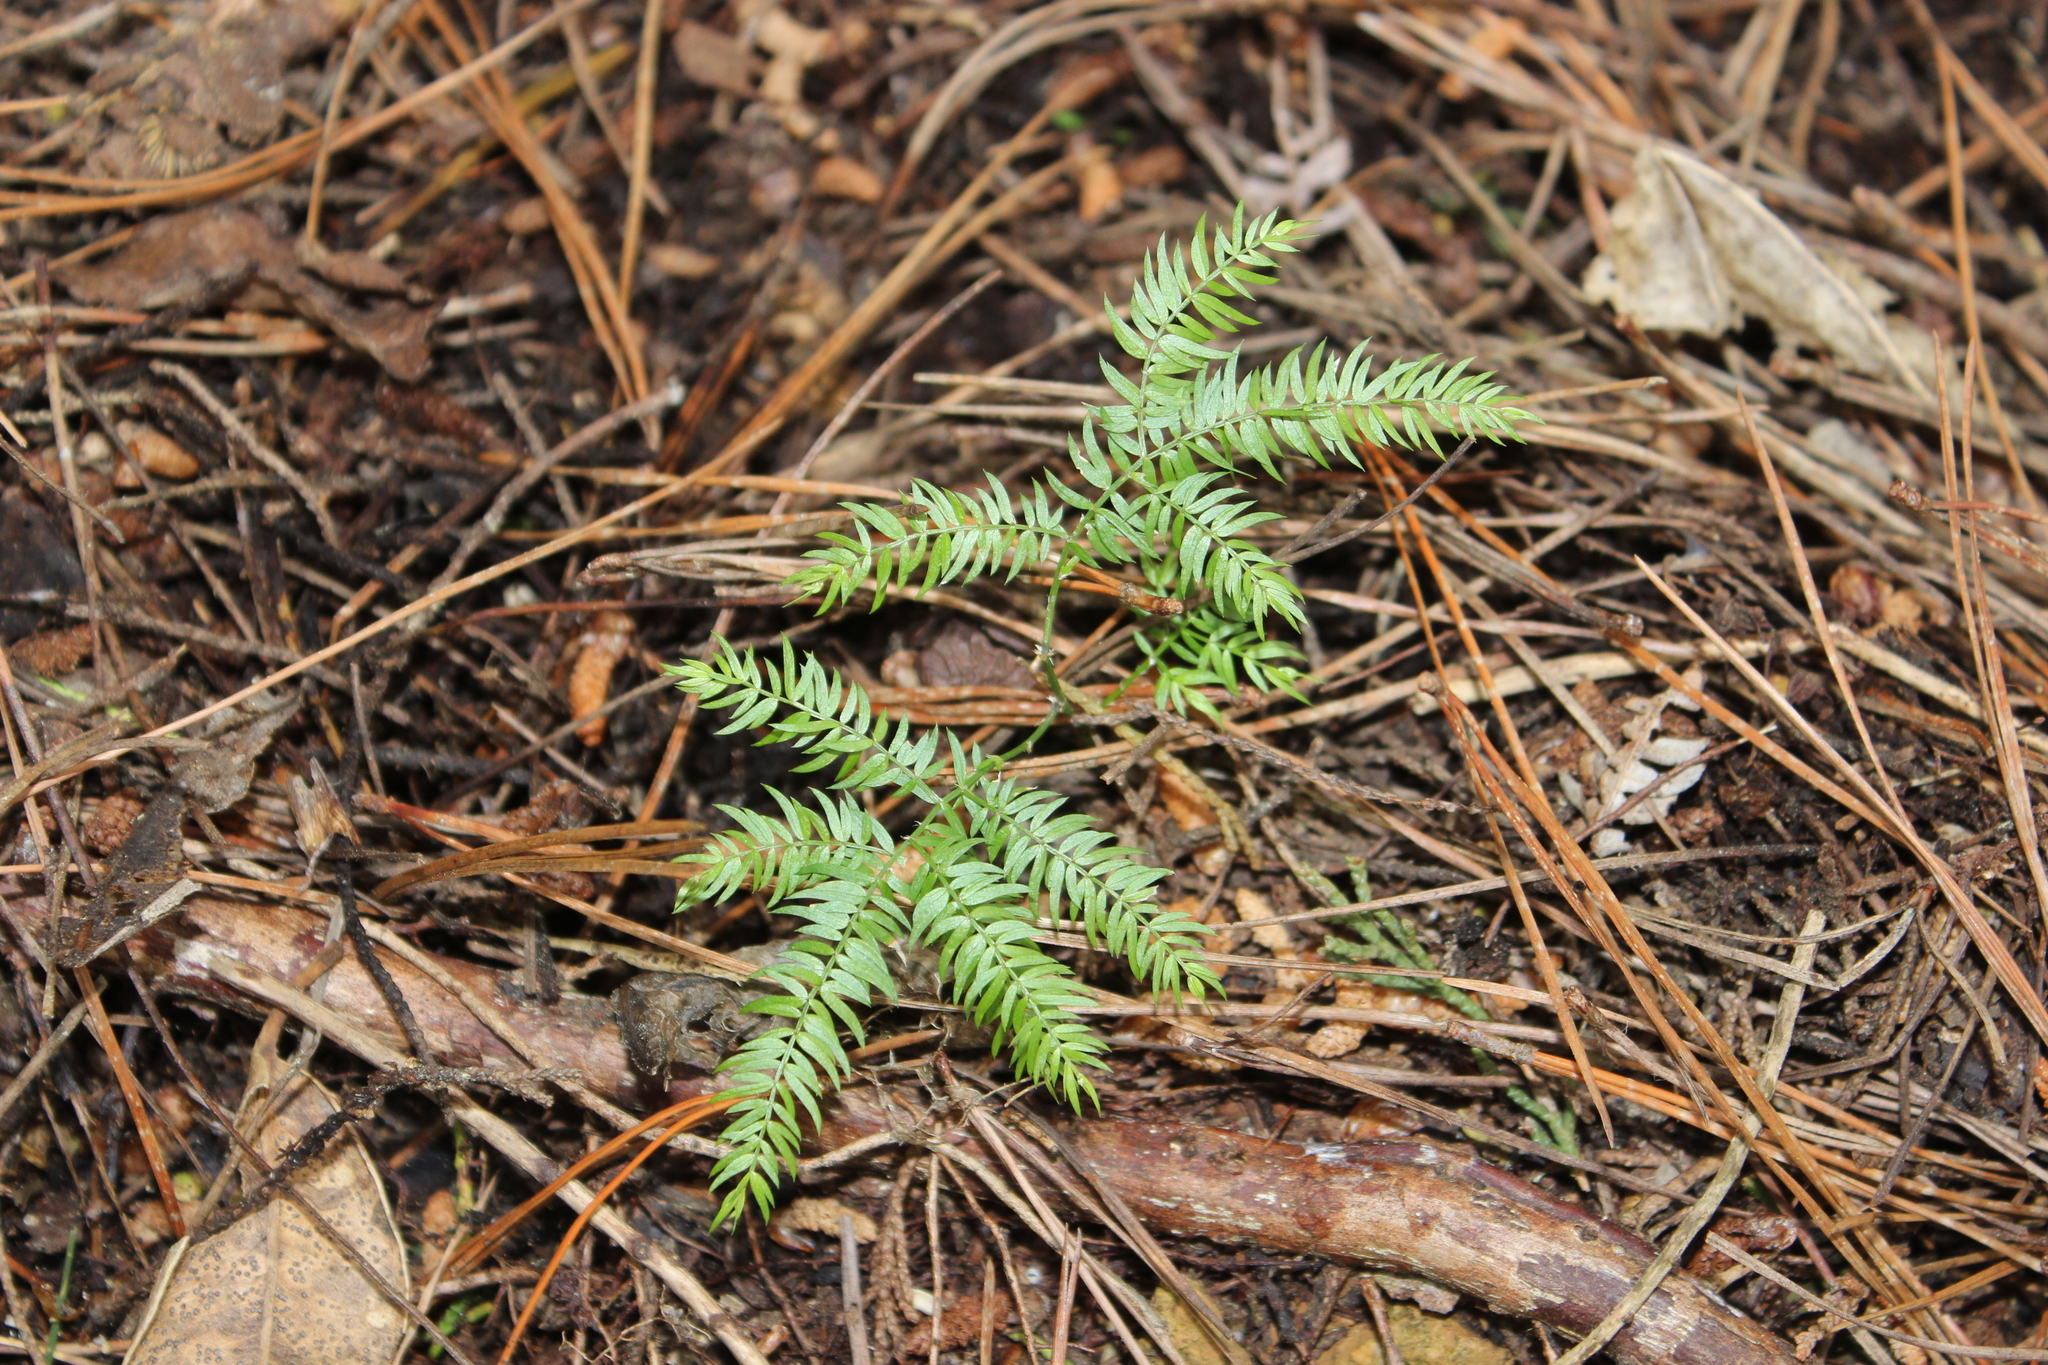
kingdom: Plantae
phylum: Tracheophyta
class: Liliopsida
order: Asparagales
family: Asparagaceae
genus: Asparagus
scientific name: Asparagus scandens
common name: Asparagus-fern
